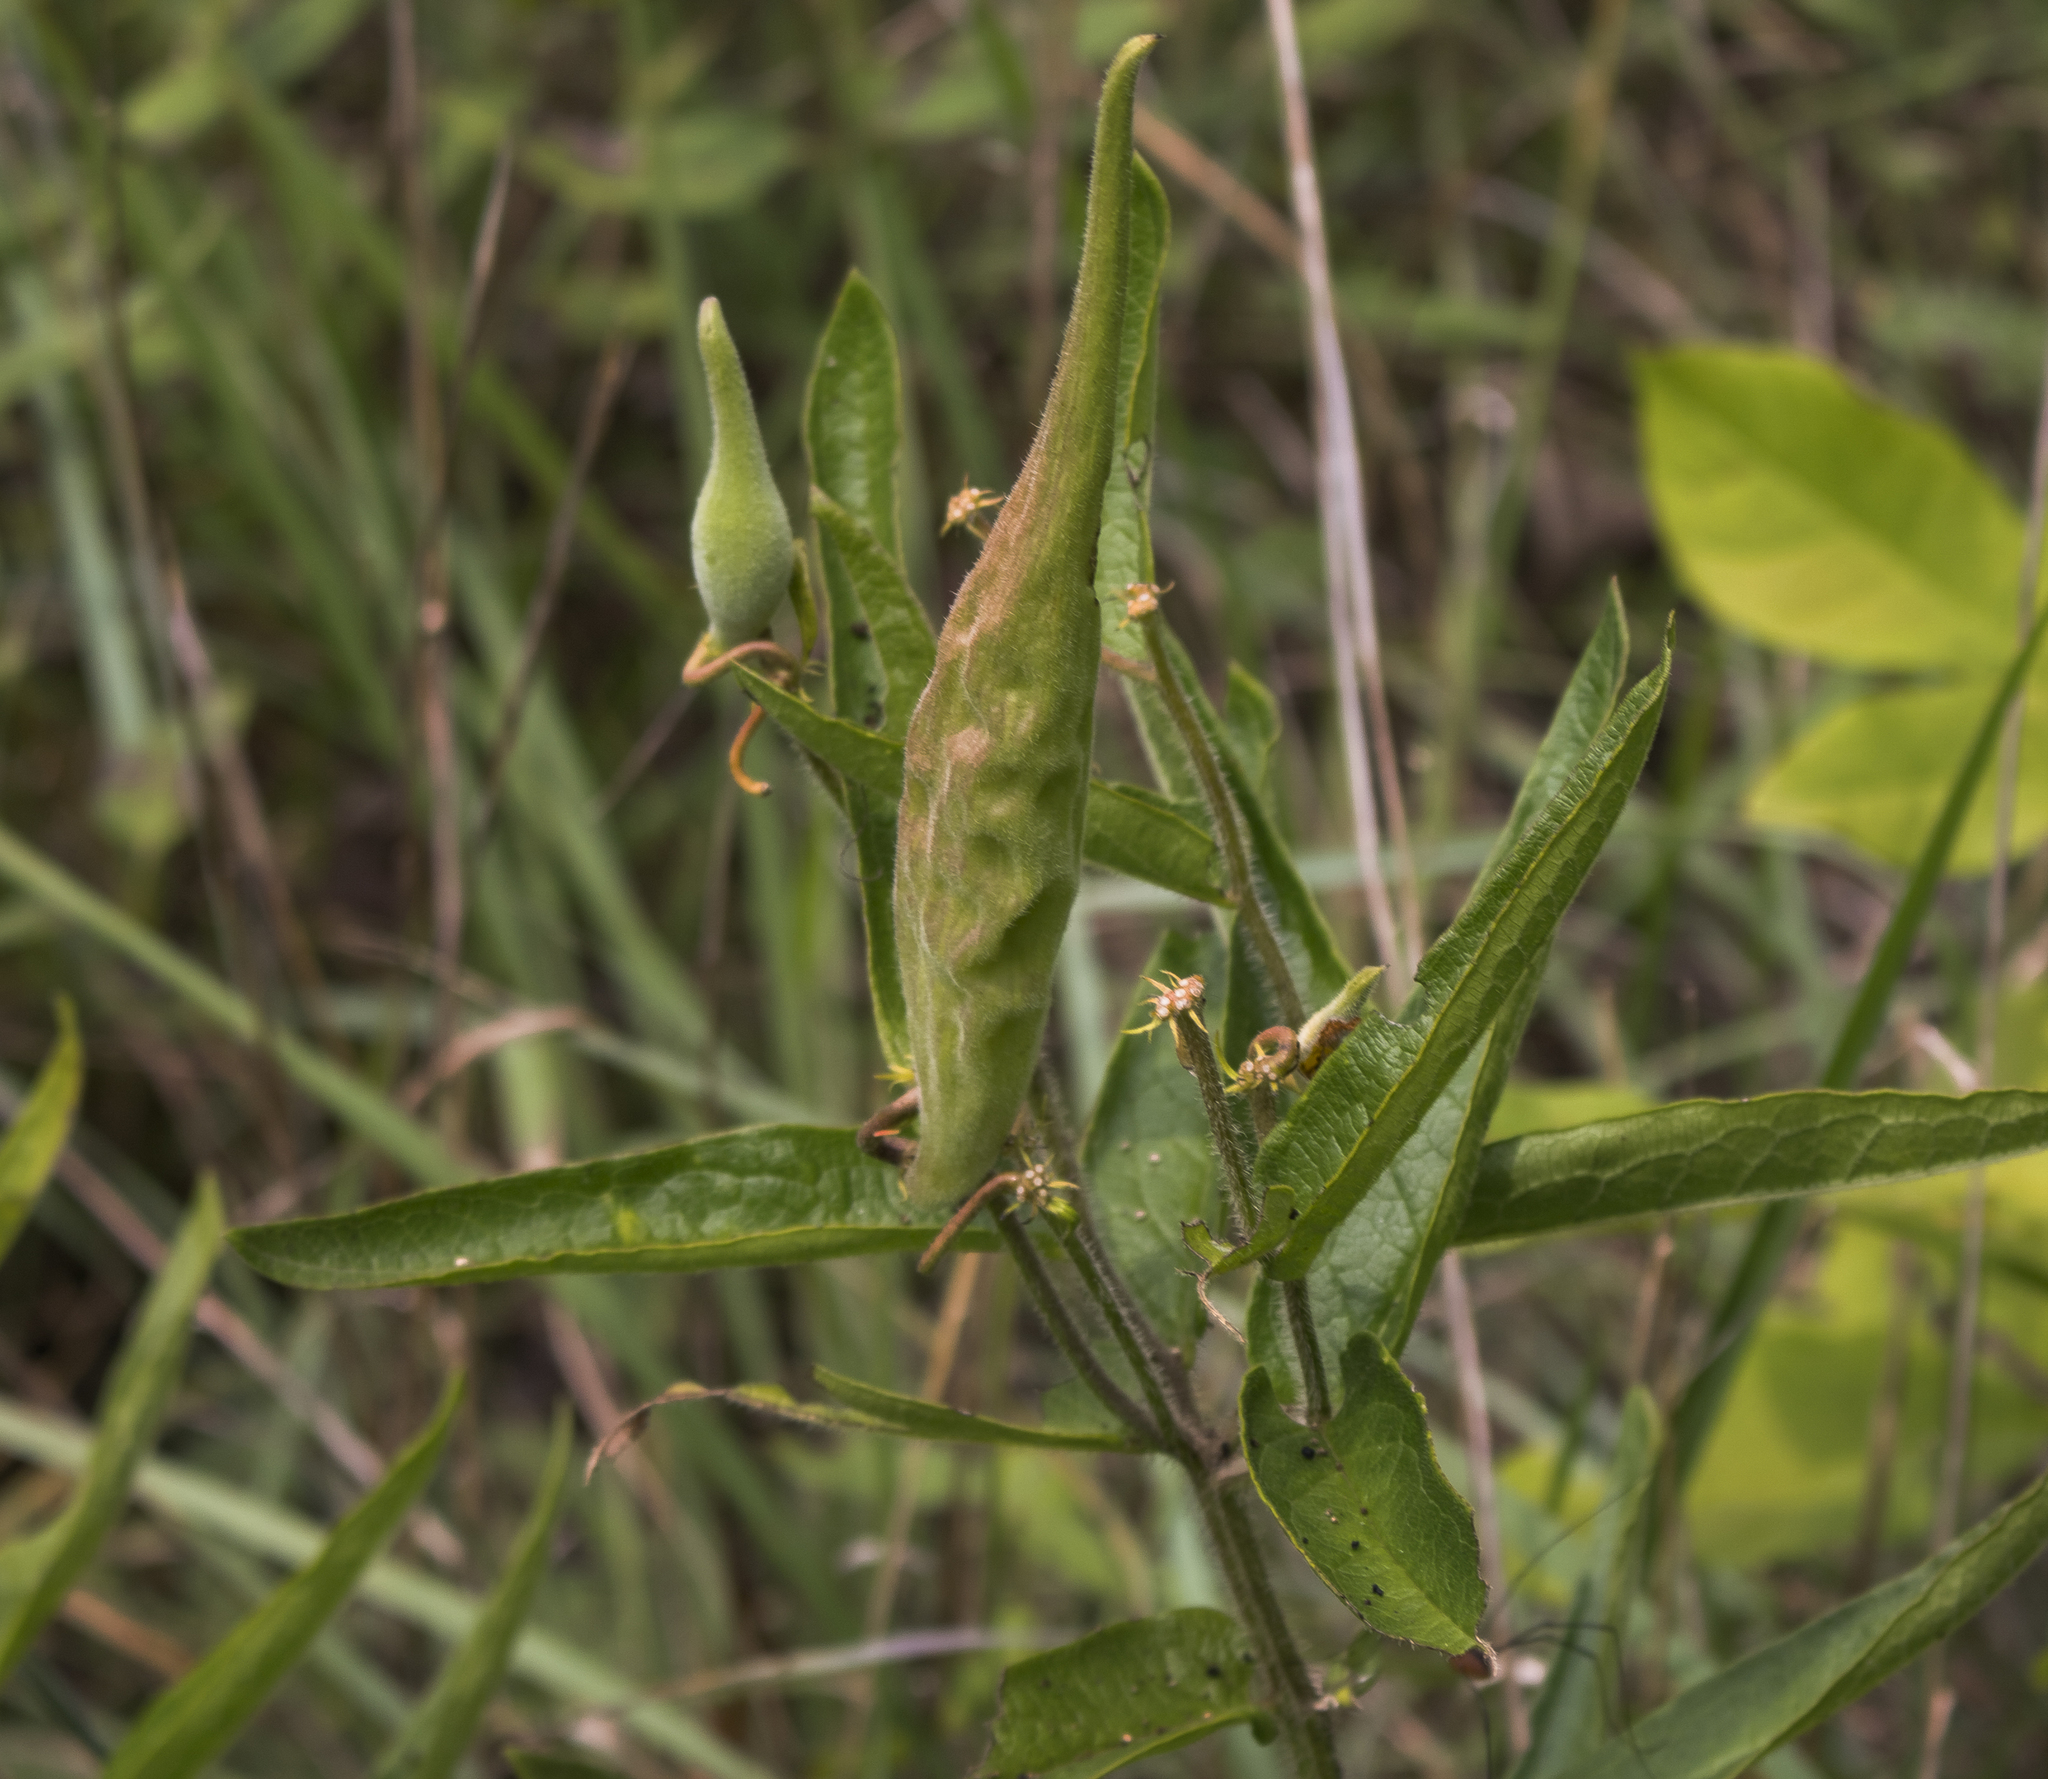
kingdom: Plantae
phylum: Tracheophyta
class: Magnoliopsida
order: Gentianales
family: Apocynaceae
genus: Asclepias
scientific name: Asclepias tuberosa
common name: Butterfly milkweed
